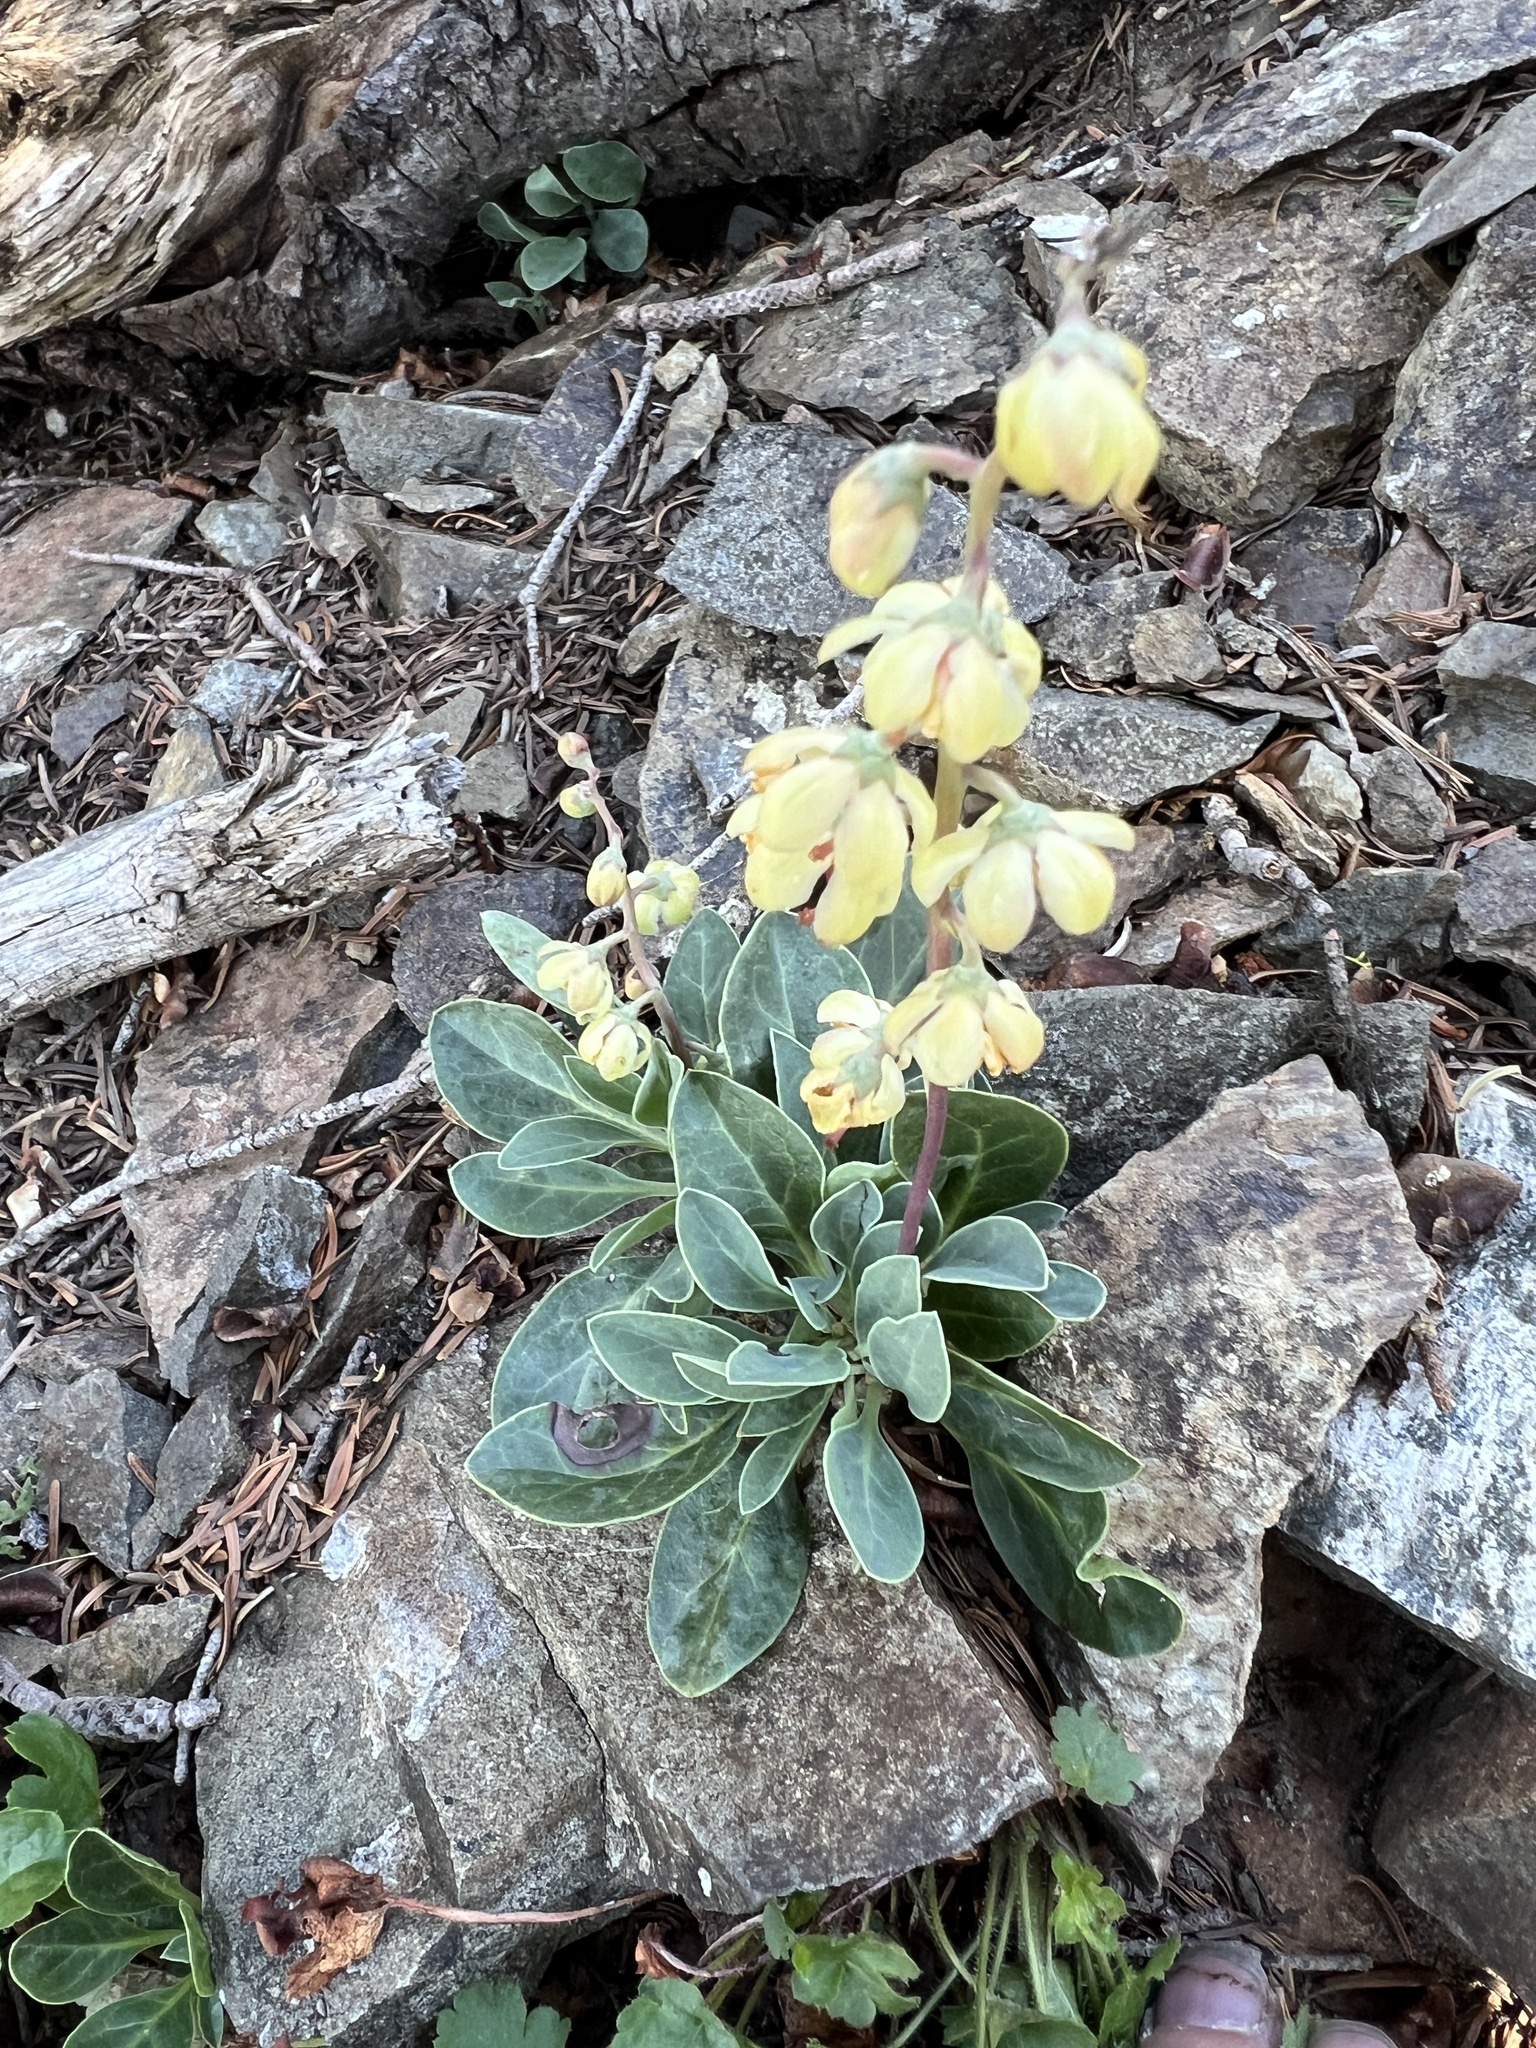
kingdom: Plantae
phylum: Tracheophyta
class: Magnoliopsida
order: Ericales
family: Ericaceae
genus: Pyrola
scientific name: Pyrola dentata
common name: Tooth-leaved wintergreen
